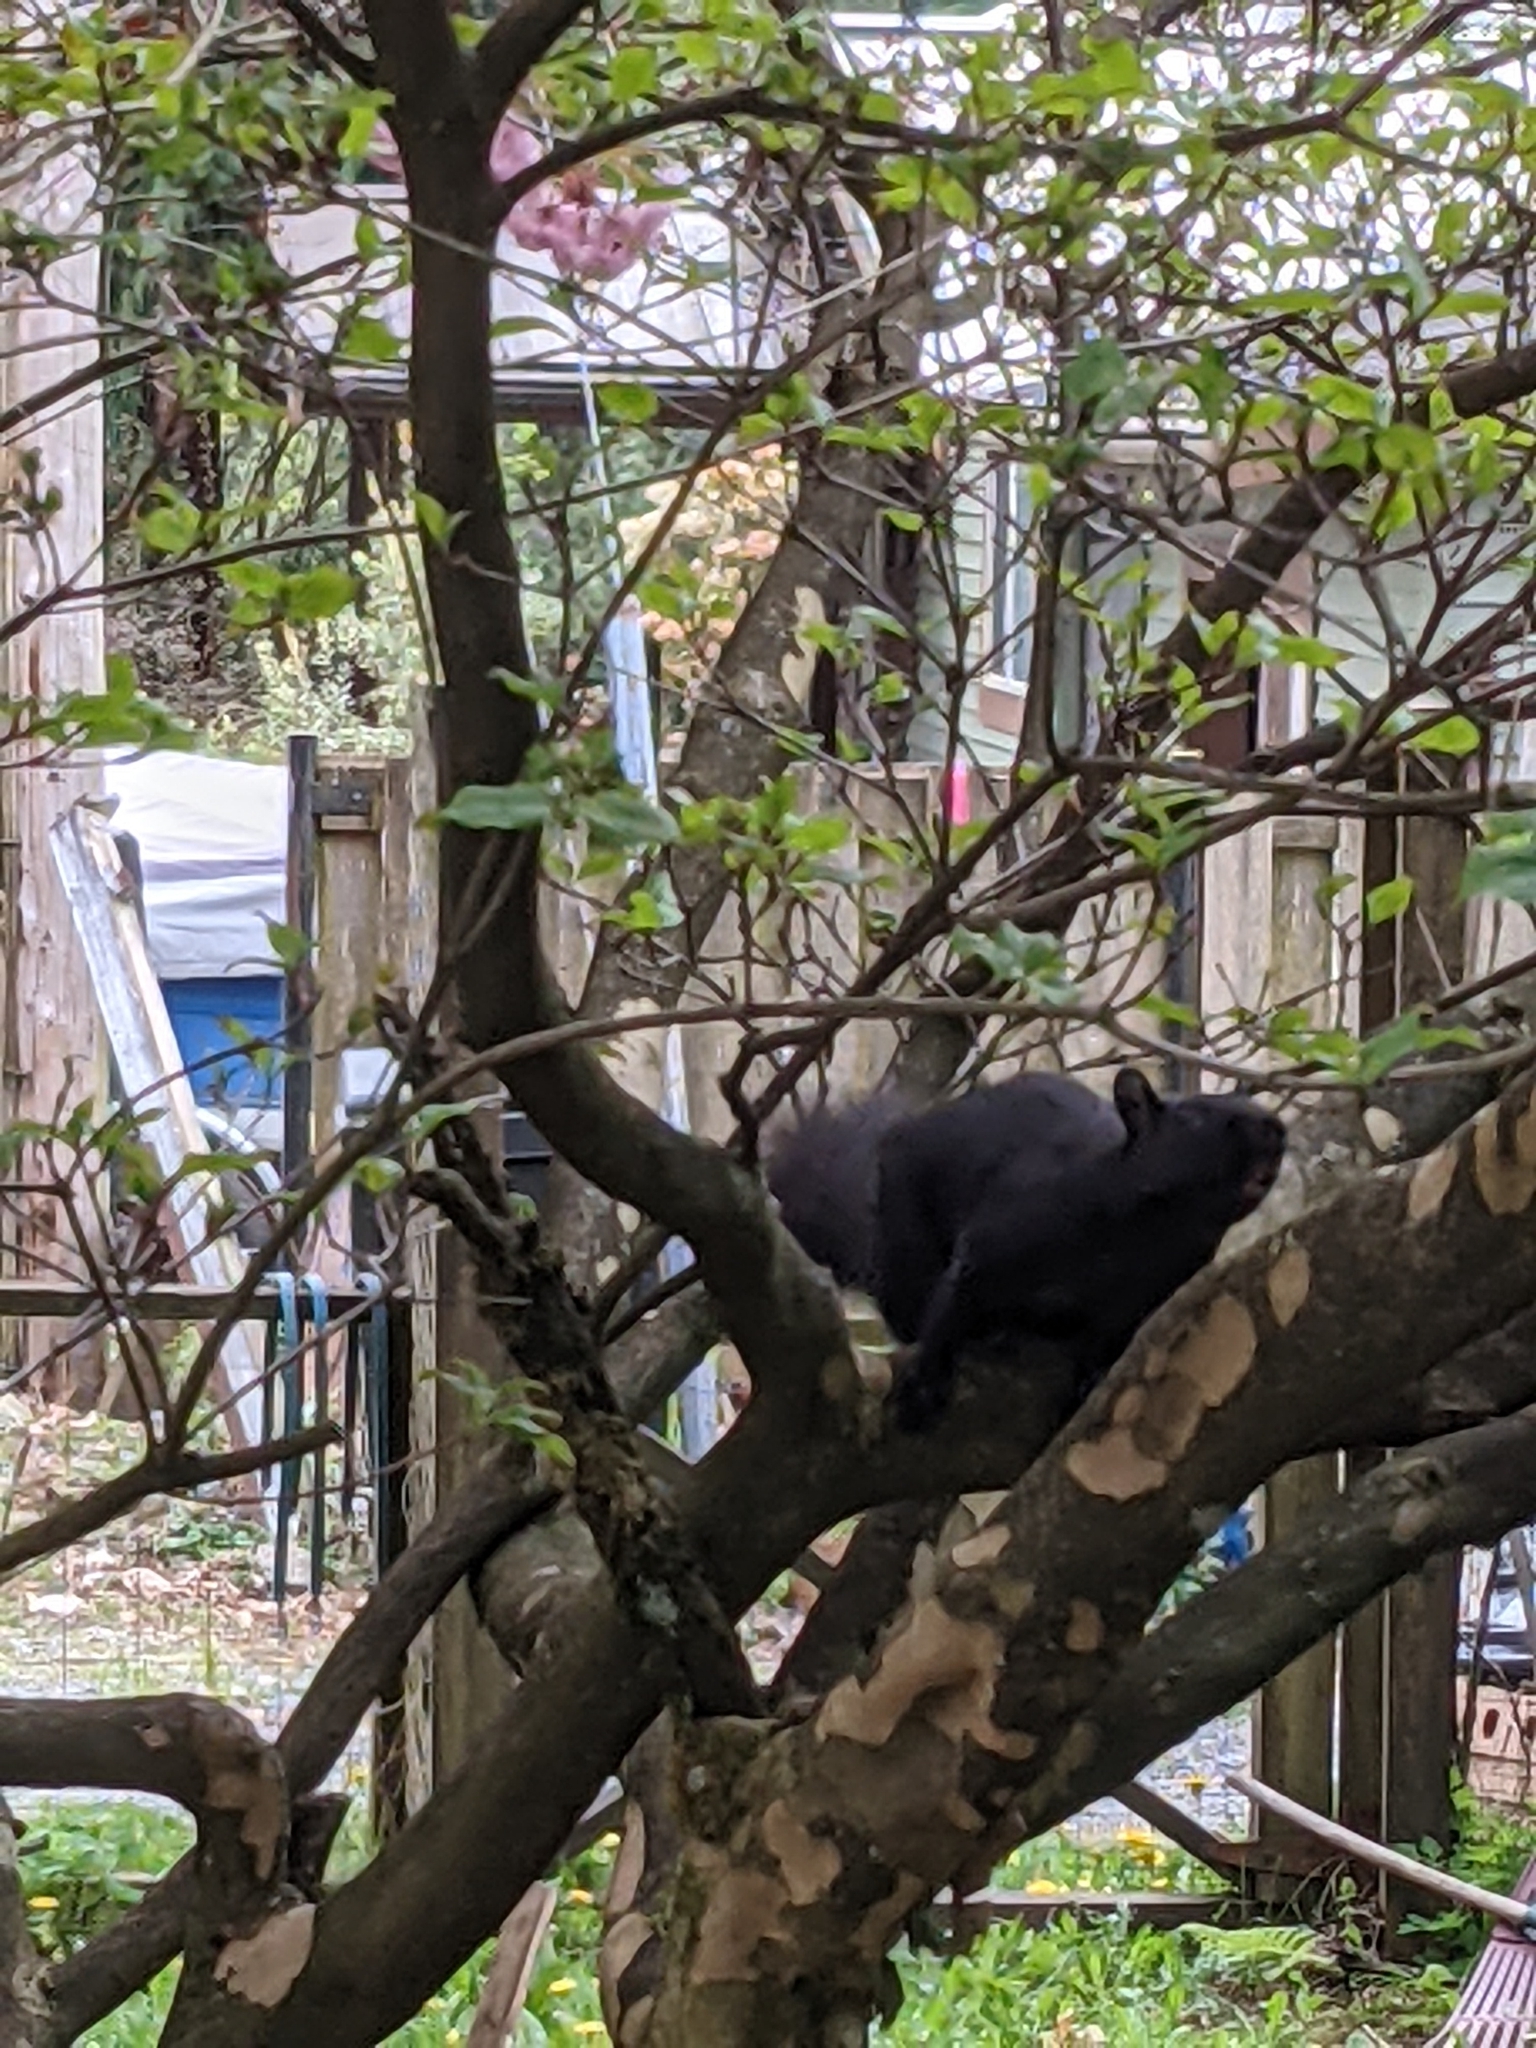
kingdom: Animalia
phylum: Chordata
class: Mammalia
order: Rodentia
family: Sciuridae
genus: Sciurus
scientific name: Sciurus carolinensis
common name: Eastern gray squirrel
